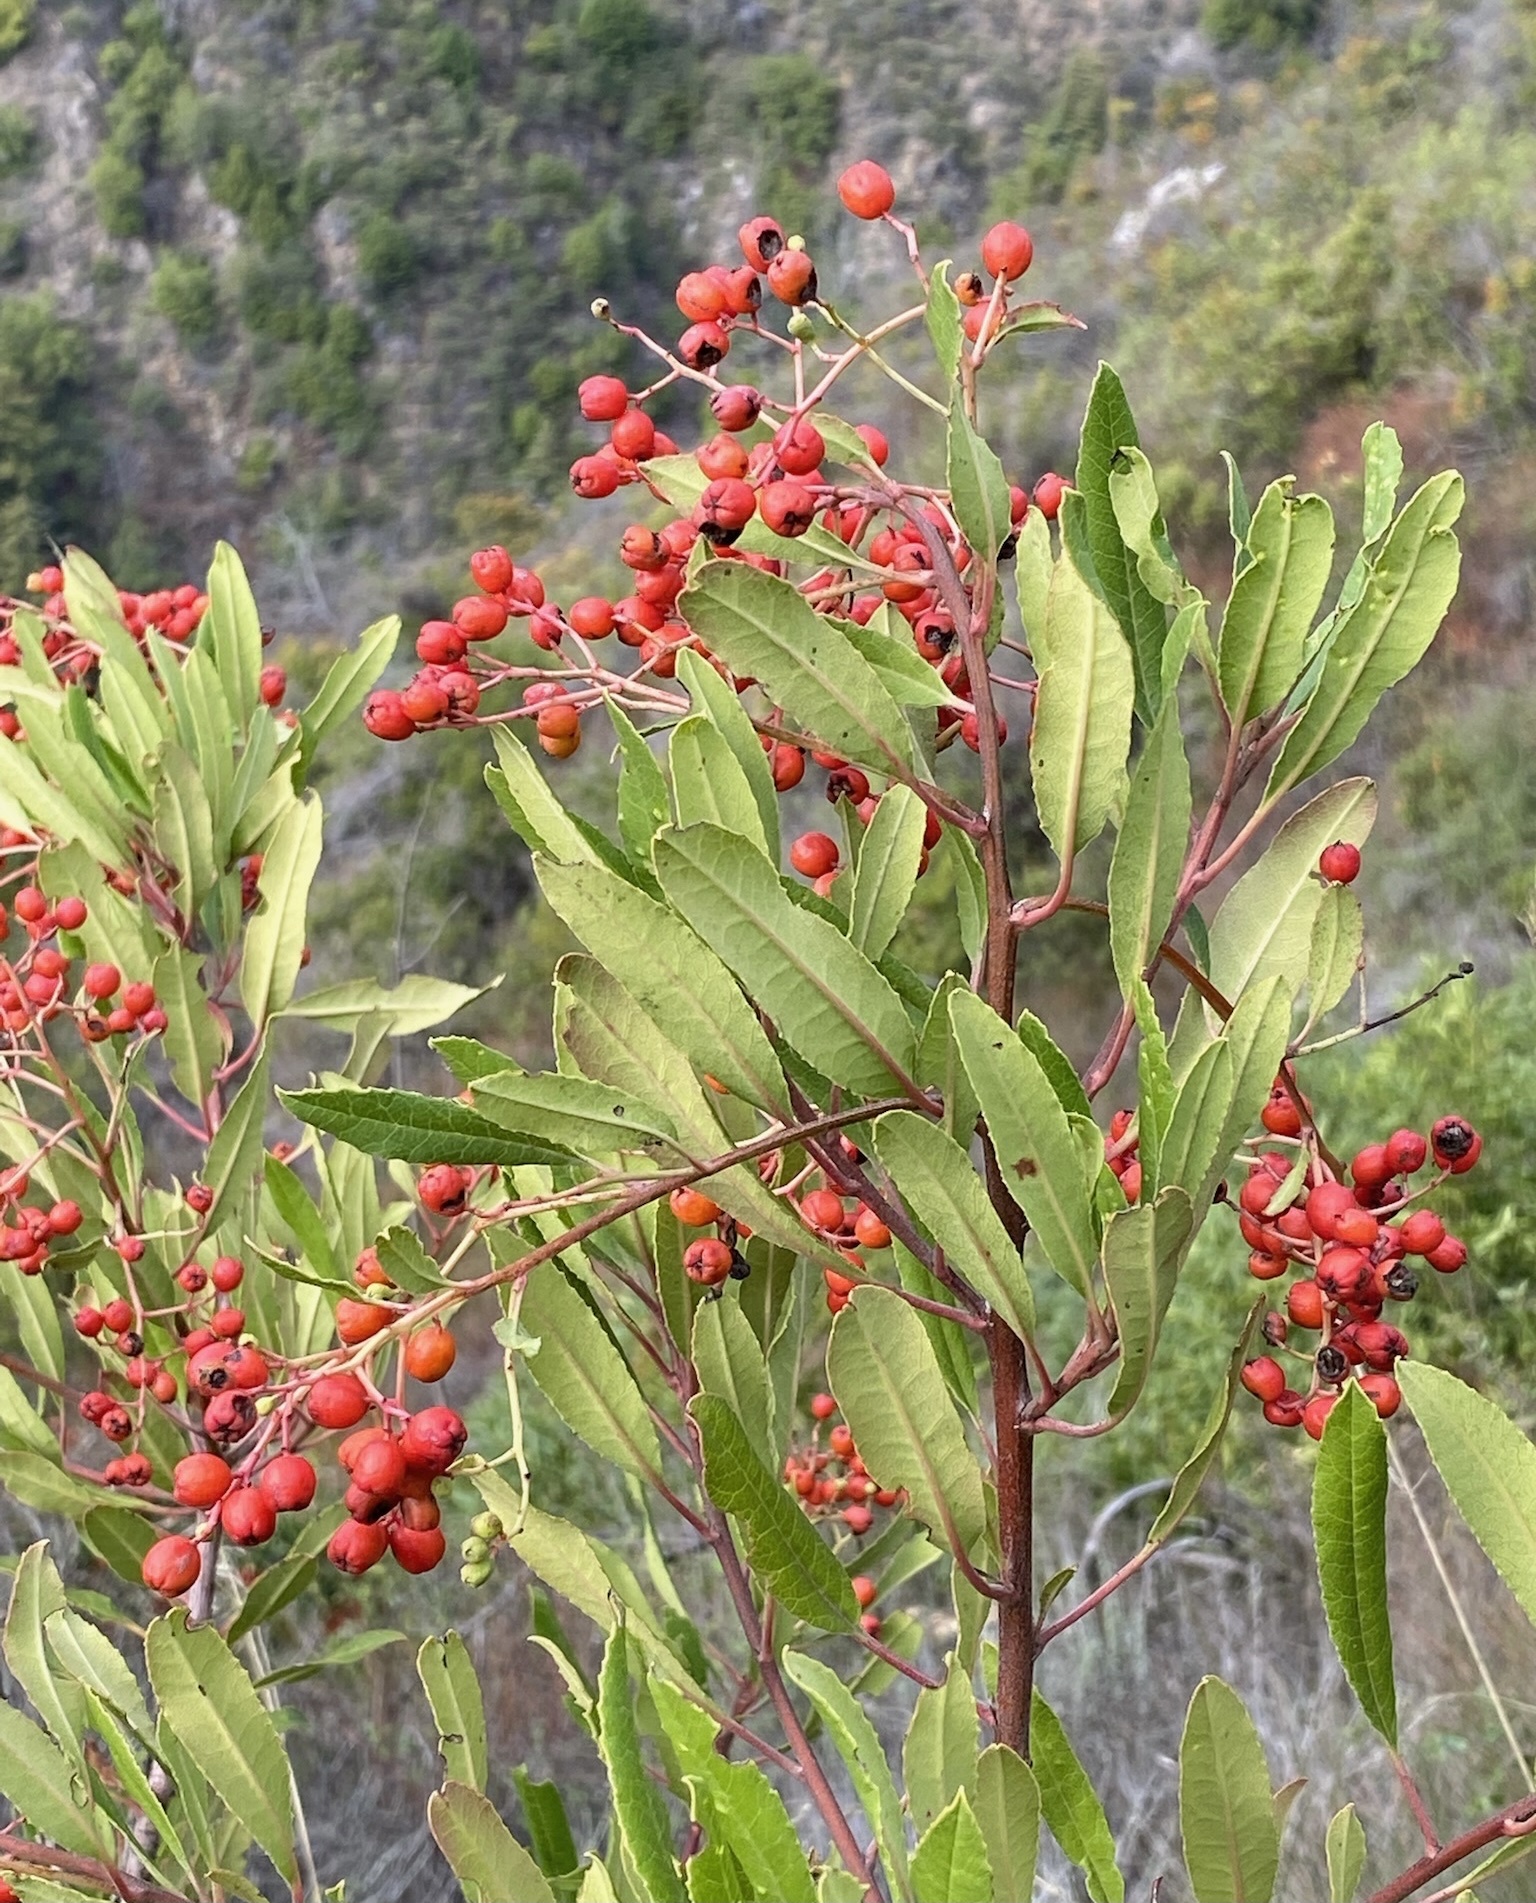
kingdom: Plantae
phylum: Tracheophyta
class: Magnoliopsida
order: Rosales
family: Rosaceae
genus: Heteromeles
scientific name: Heteromeles arbutifolia
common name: California-holly
